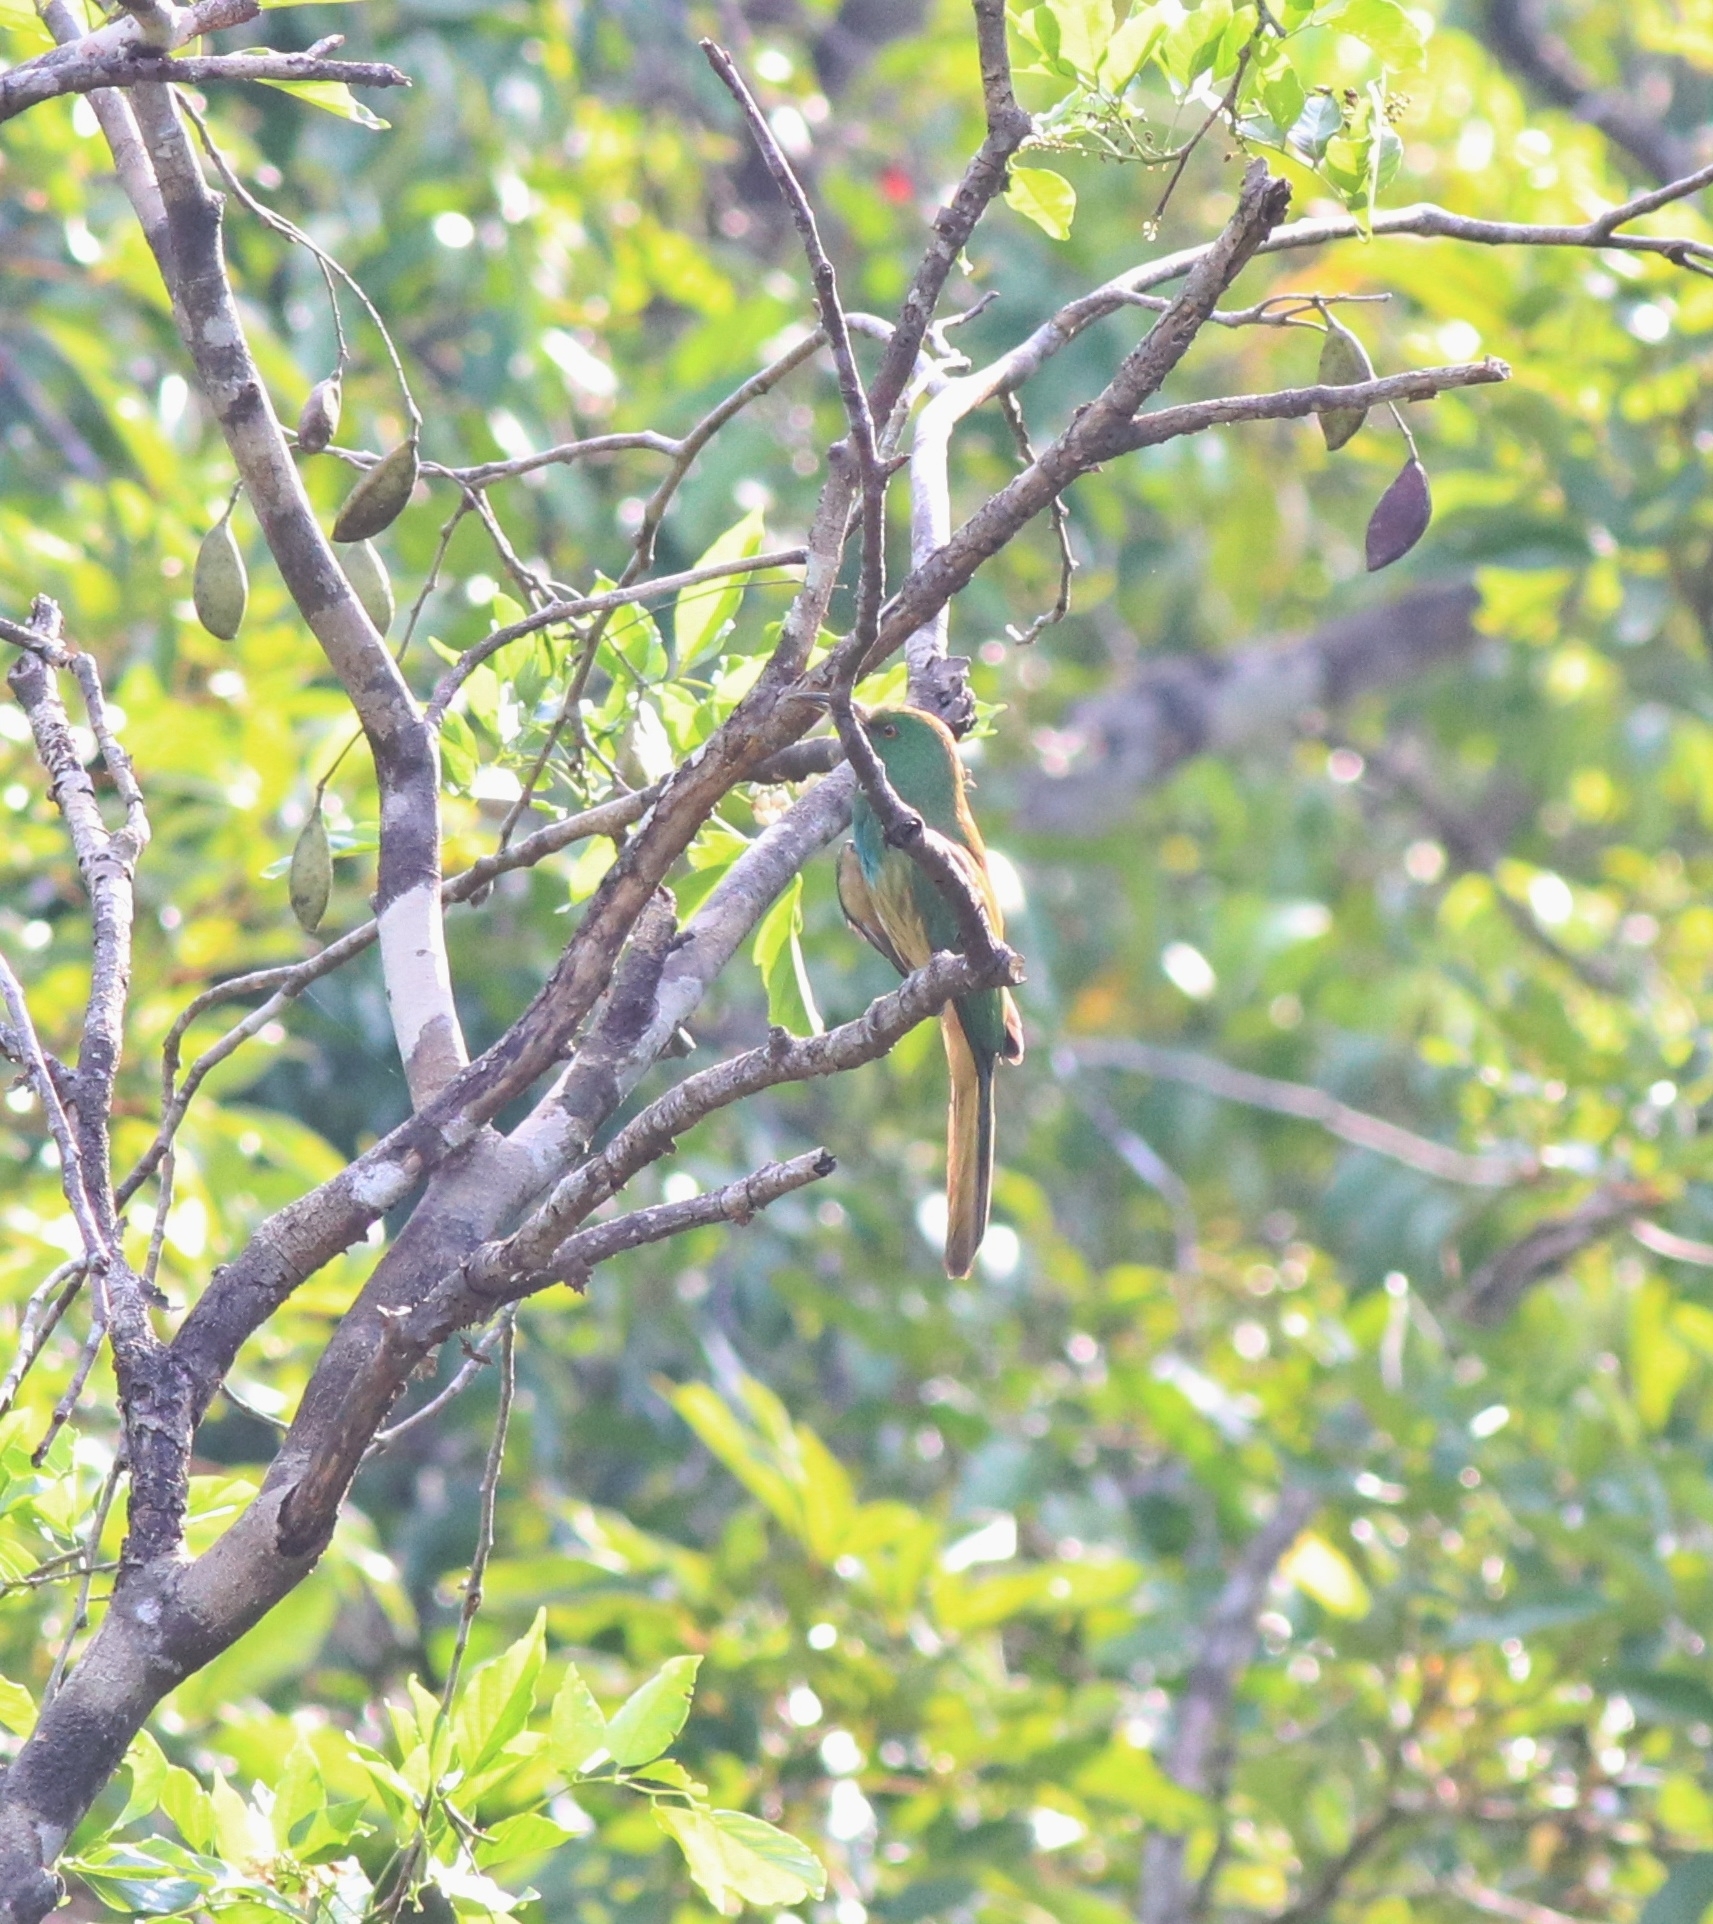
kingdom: Animalia
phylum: Chordata
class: Aves
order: Coraciiformes
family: Meropidae
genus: Nyctyornis
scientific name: Nyctyornis athertoni
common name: Blue-bearded bee-eater
